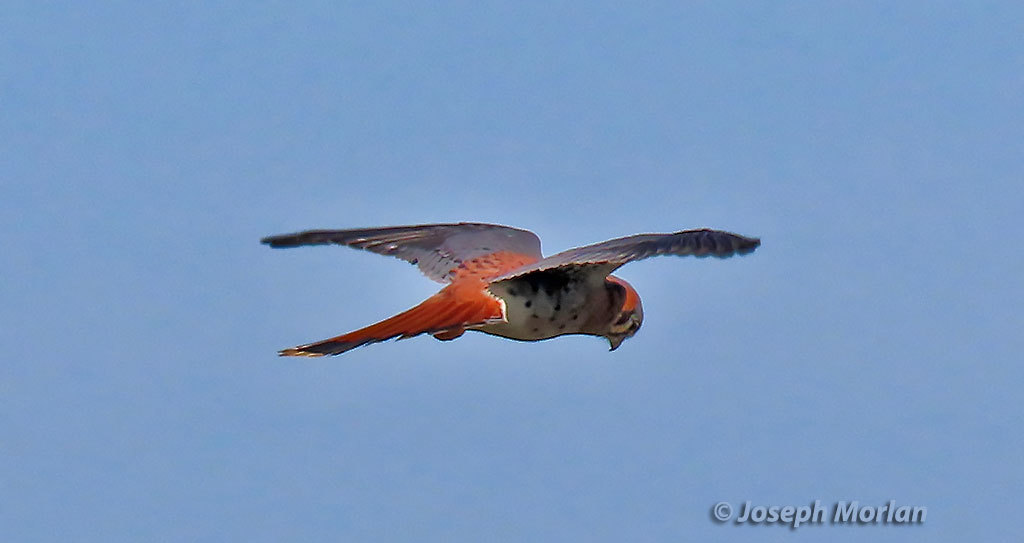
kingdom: Animalia
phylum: Chordata
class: Aves
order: Falconiformes
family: Falconidae
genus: Falco
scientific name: Falco sparverius
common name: American kestrel
